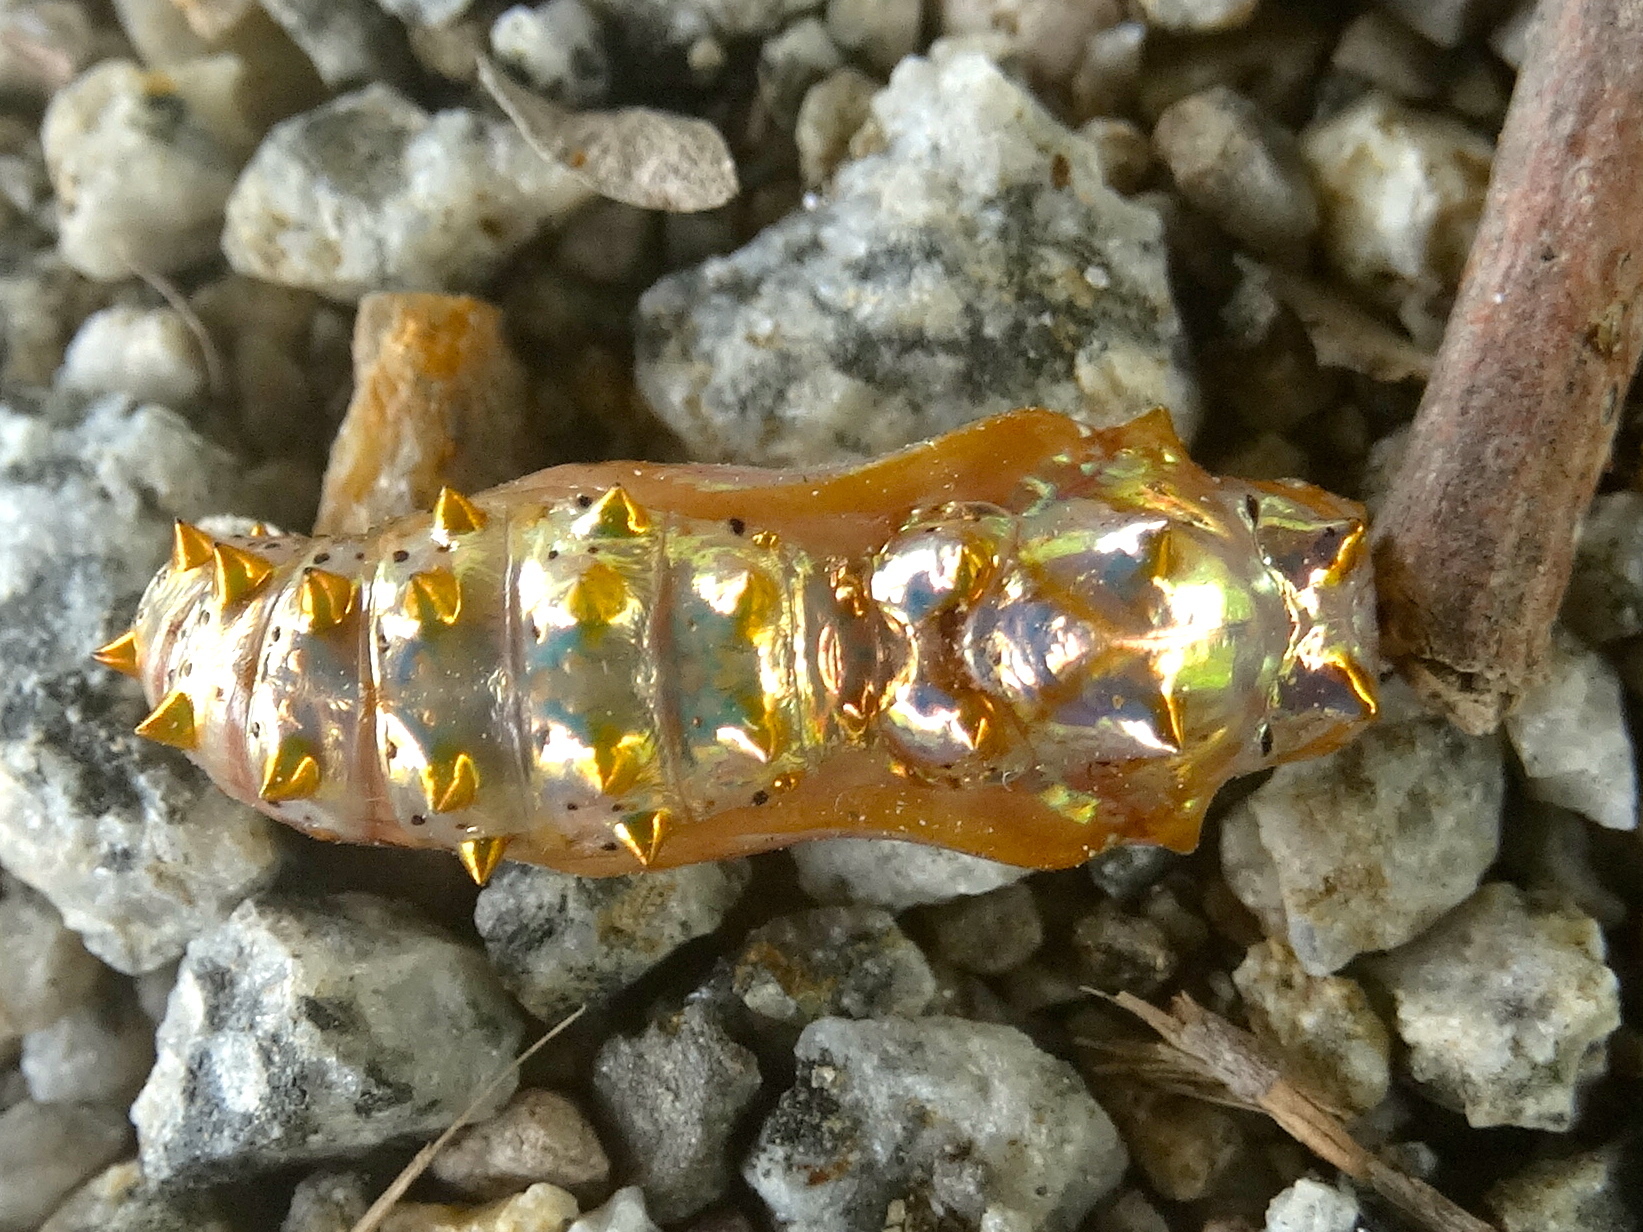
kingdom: Animalia
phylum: Arthropoda
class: Insecta
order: Lepidoptera
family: Nymphalidae
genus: Euptoieta
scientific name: Euptoieta hegesia
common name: Mexican fritillary
